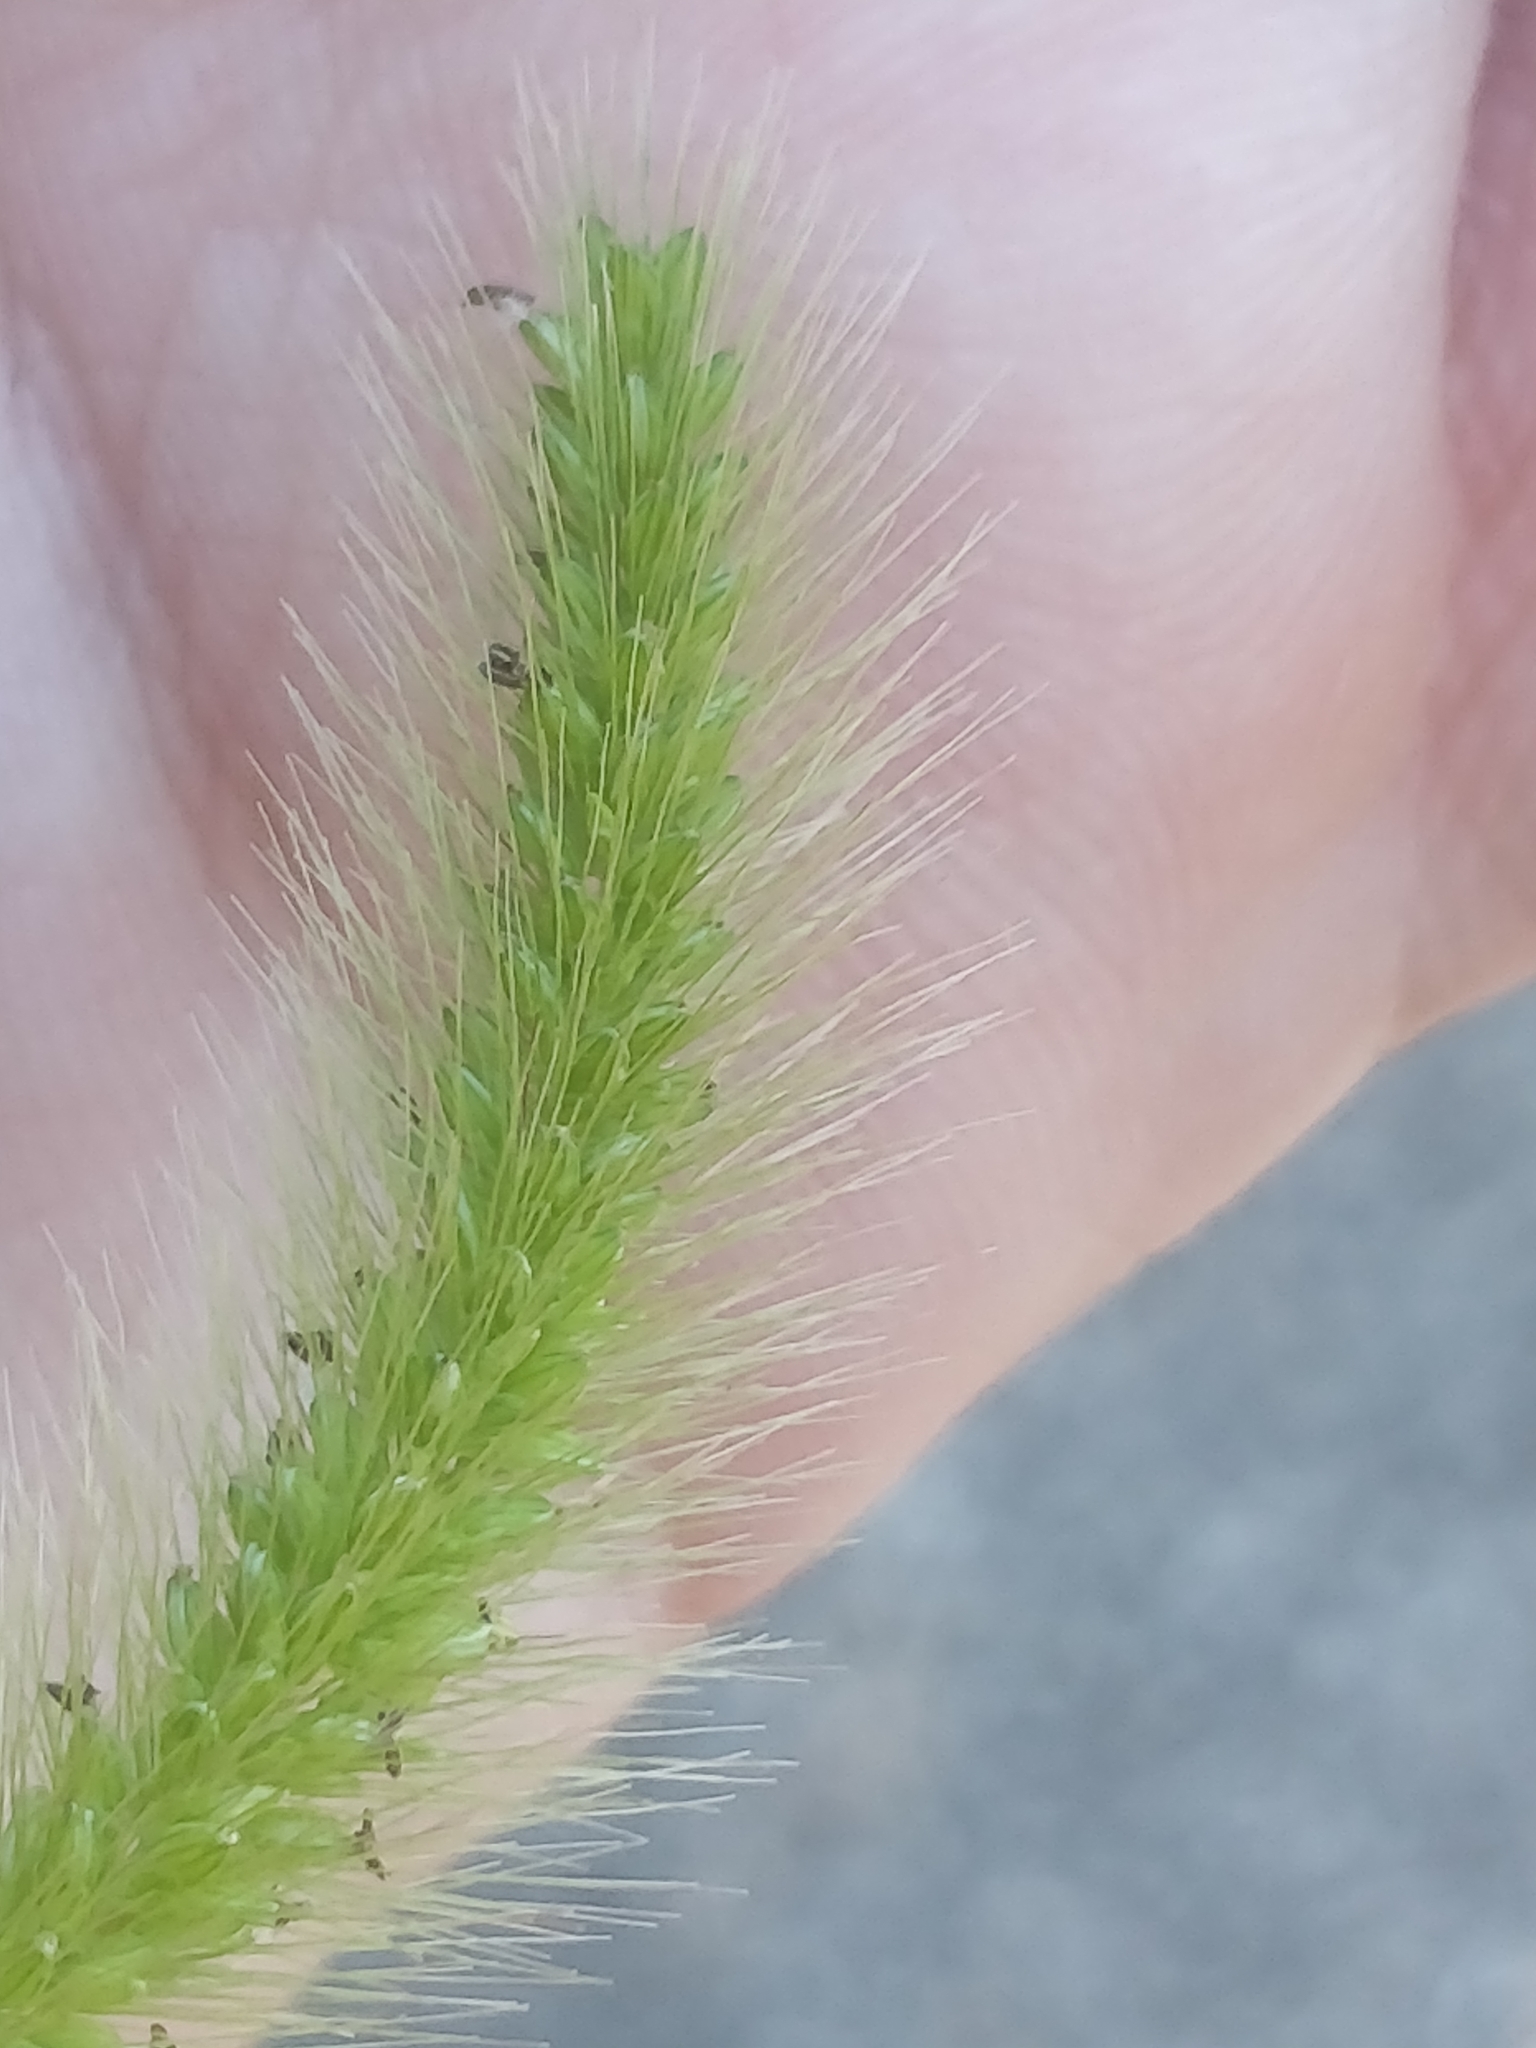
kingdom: Plantae
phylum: Tracheophyta
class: Liliopsida
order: Poales
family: Poaceae
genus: Setaria
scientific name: Setaria viridis
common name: Green bristlegrass
